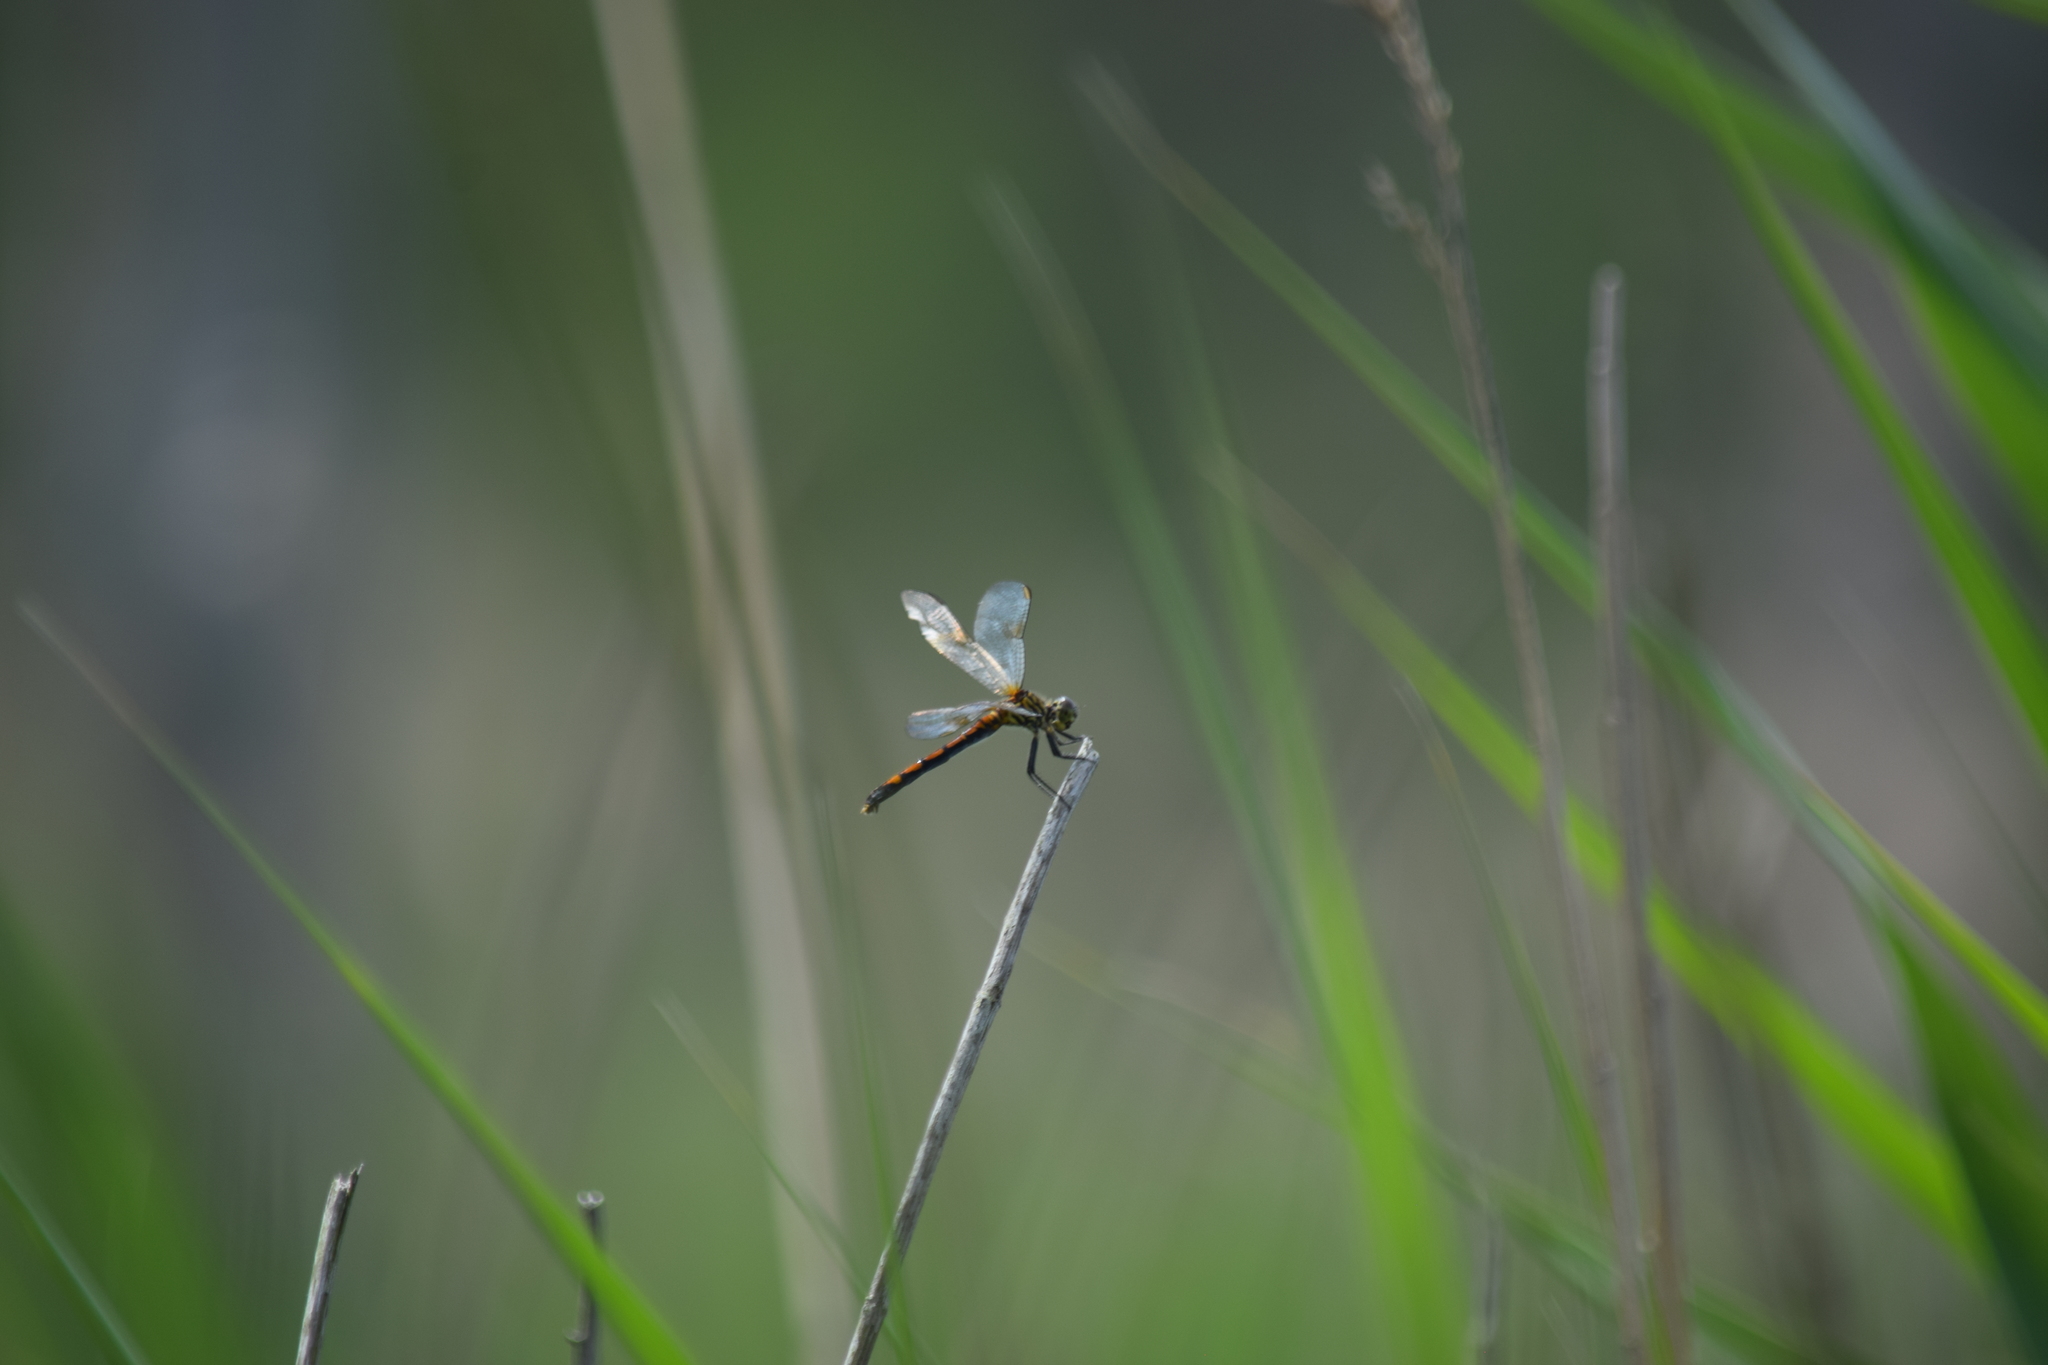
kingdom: Animalia
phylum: Arthropoda
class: Insecta
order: Odonata
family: Libellulidae
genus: Erythrodiplax
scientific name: Erythrodiplax berenice
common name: Seaside dragonlet
